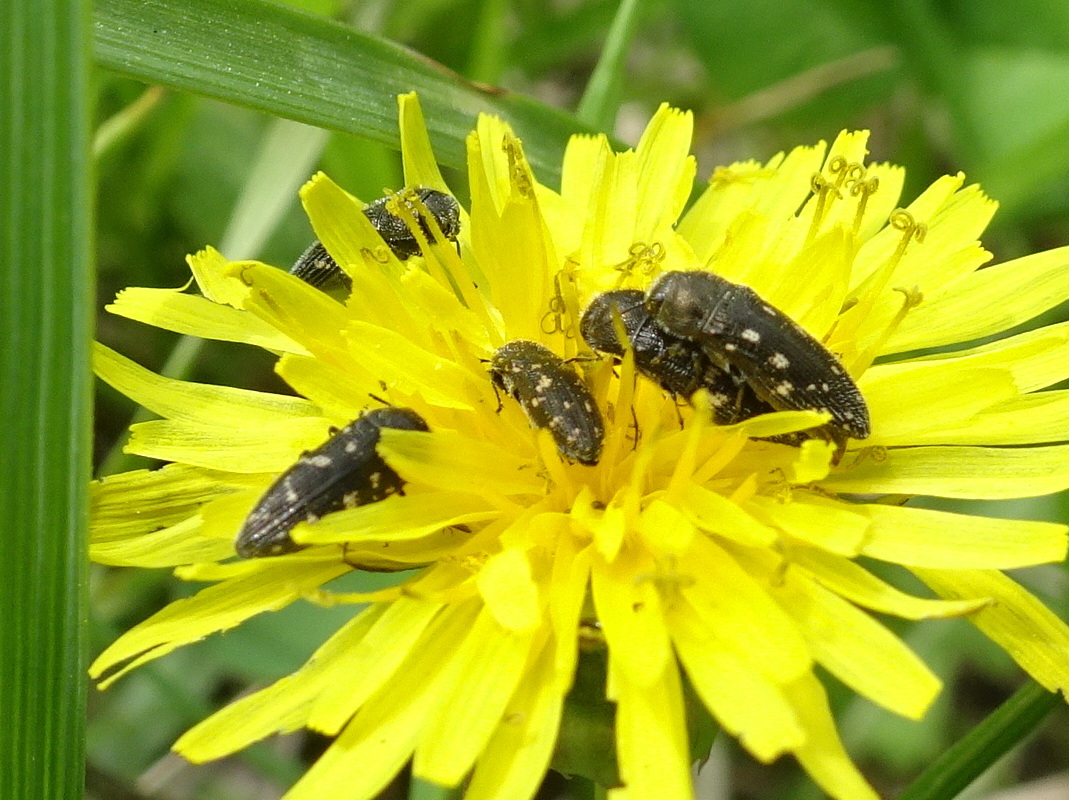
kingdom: Animalia
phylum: Arthropoda
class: Insecta
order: Coleoptera
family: Buprestidae
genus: Acmaeodera
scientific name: Acmaeodera tubulus
